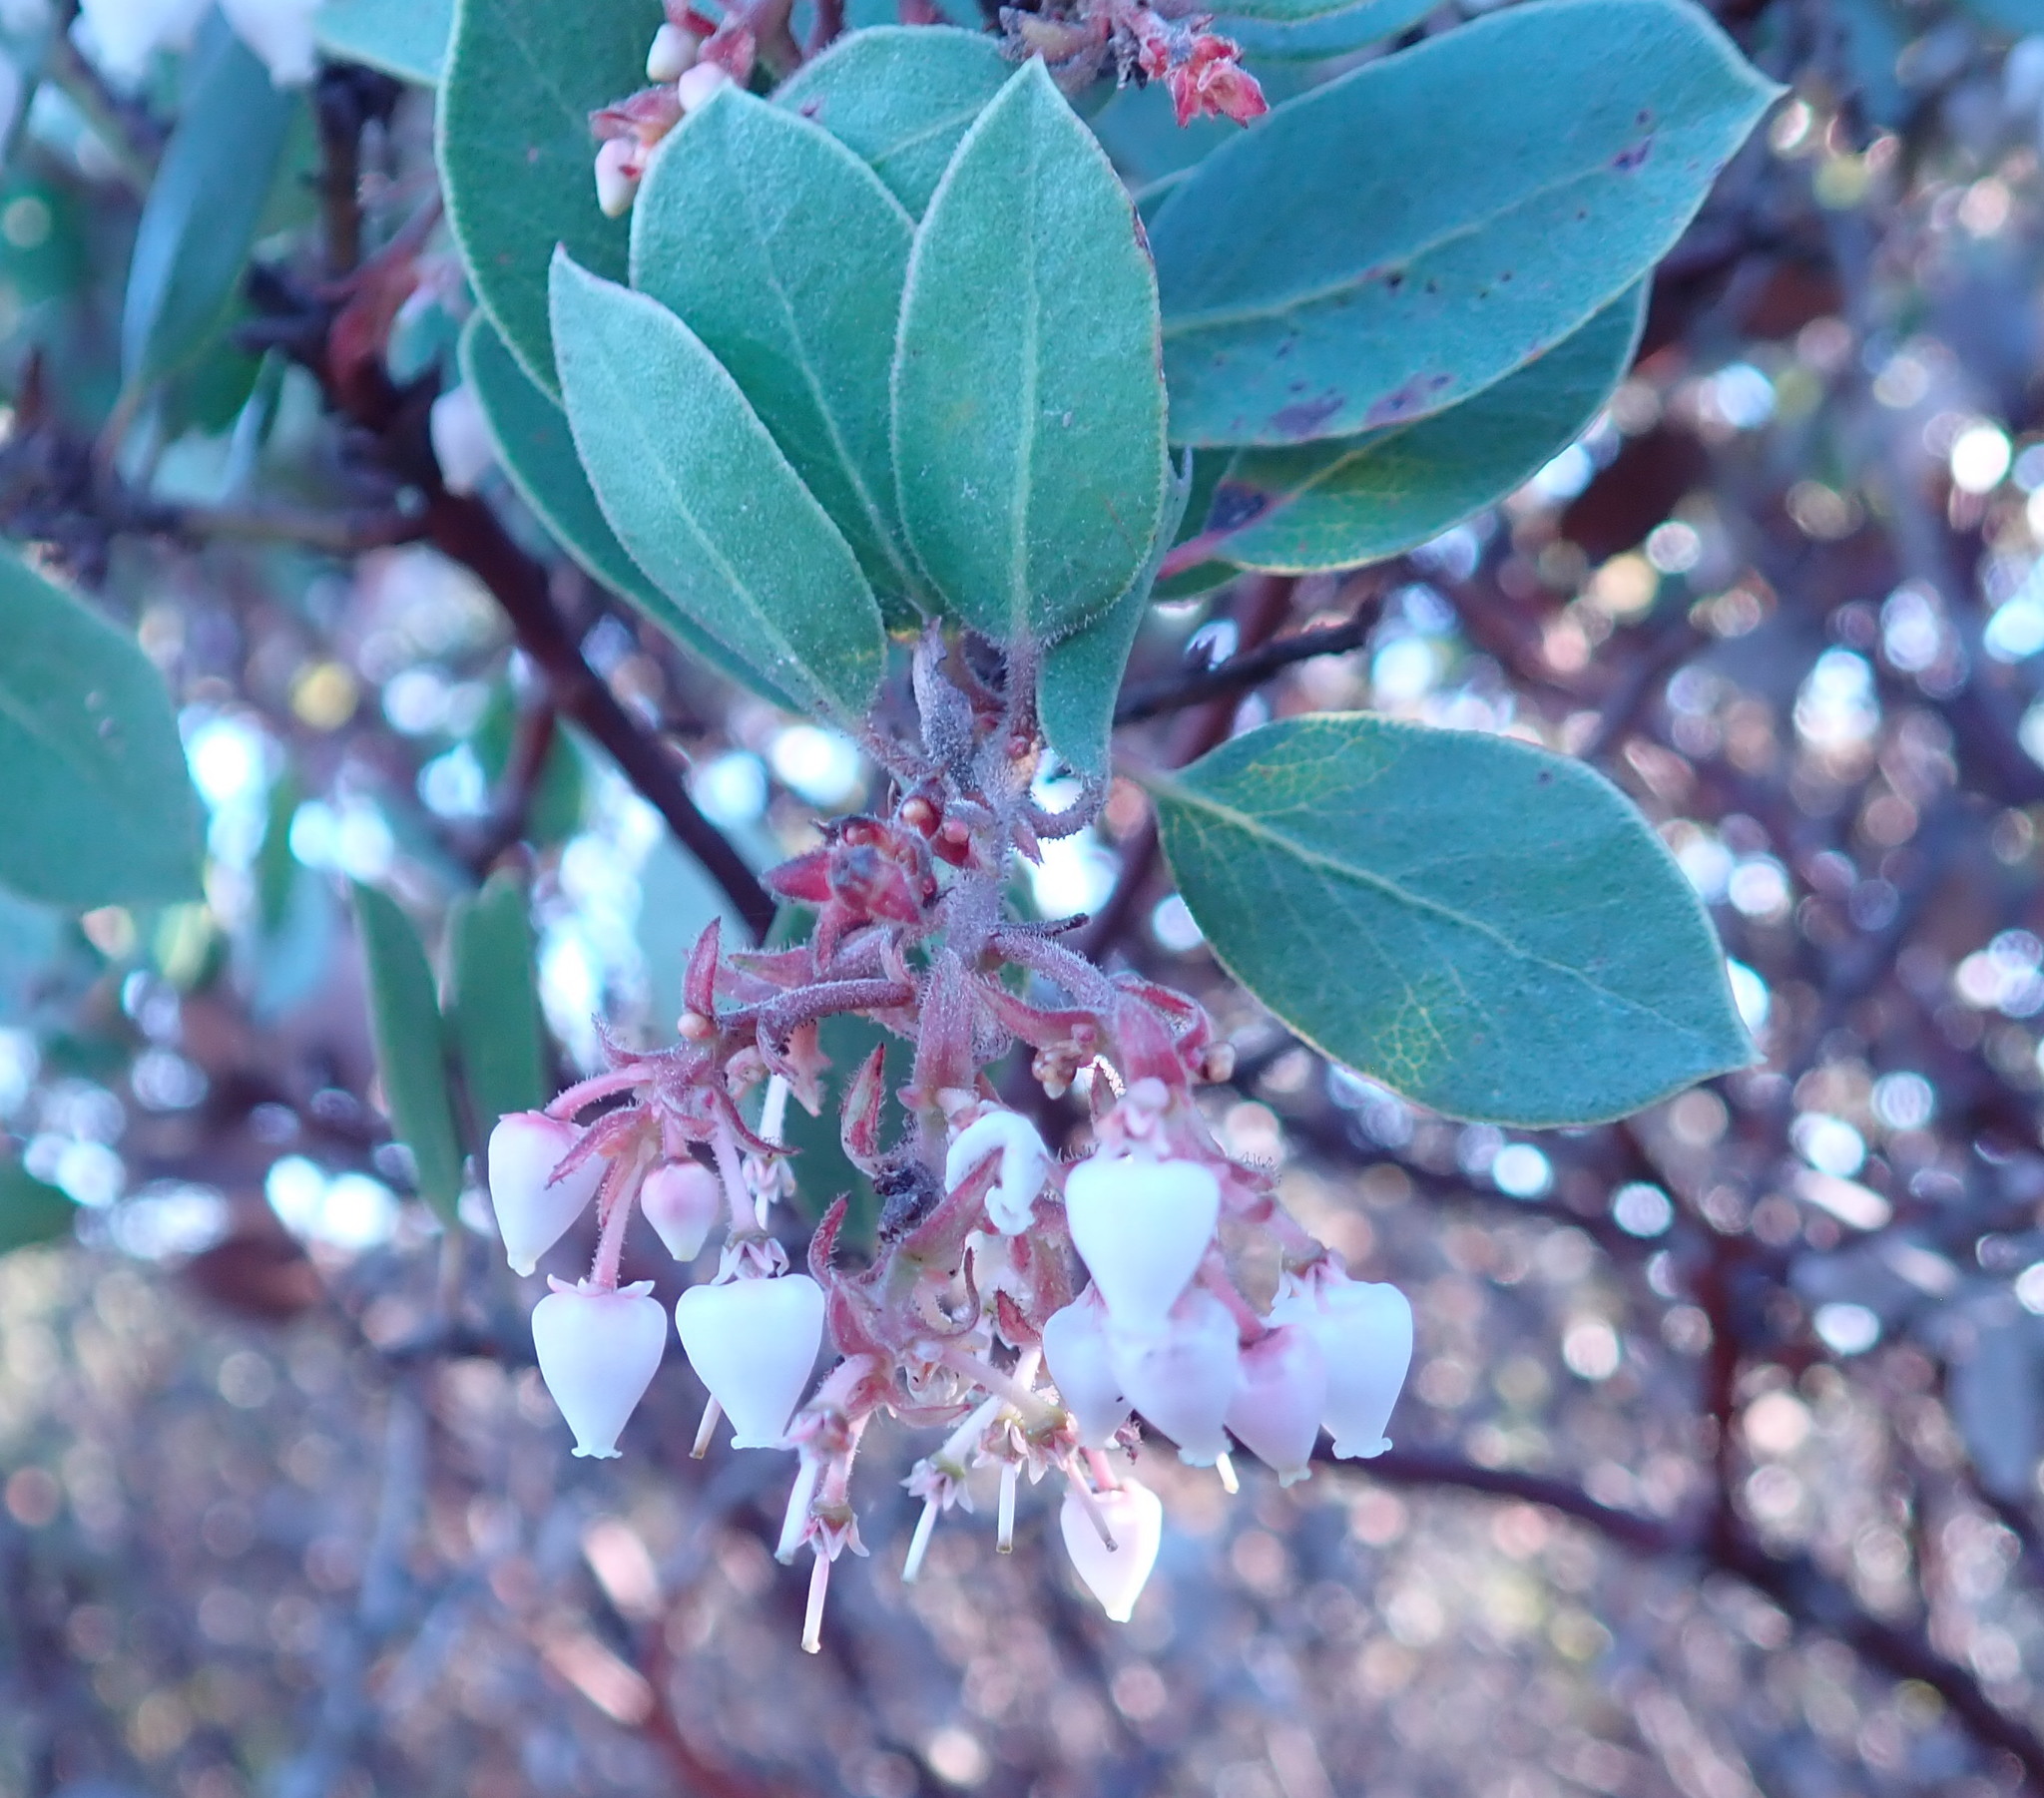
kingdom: Plantae
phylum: Tracheophyta
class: Magnoliopsida
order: Ericales
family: Ericaceae
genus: Arctostaphylos
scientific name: Arctostaphylos montereyensis
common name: Monterey manzanita
